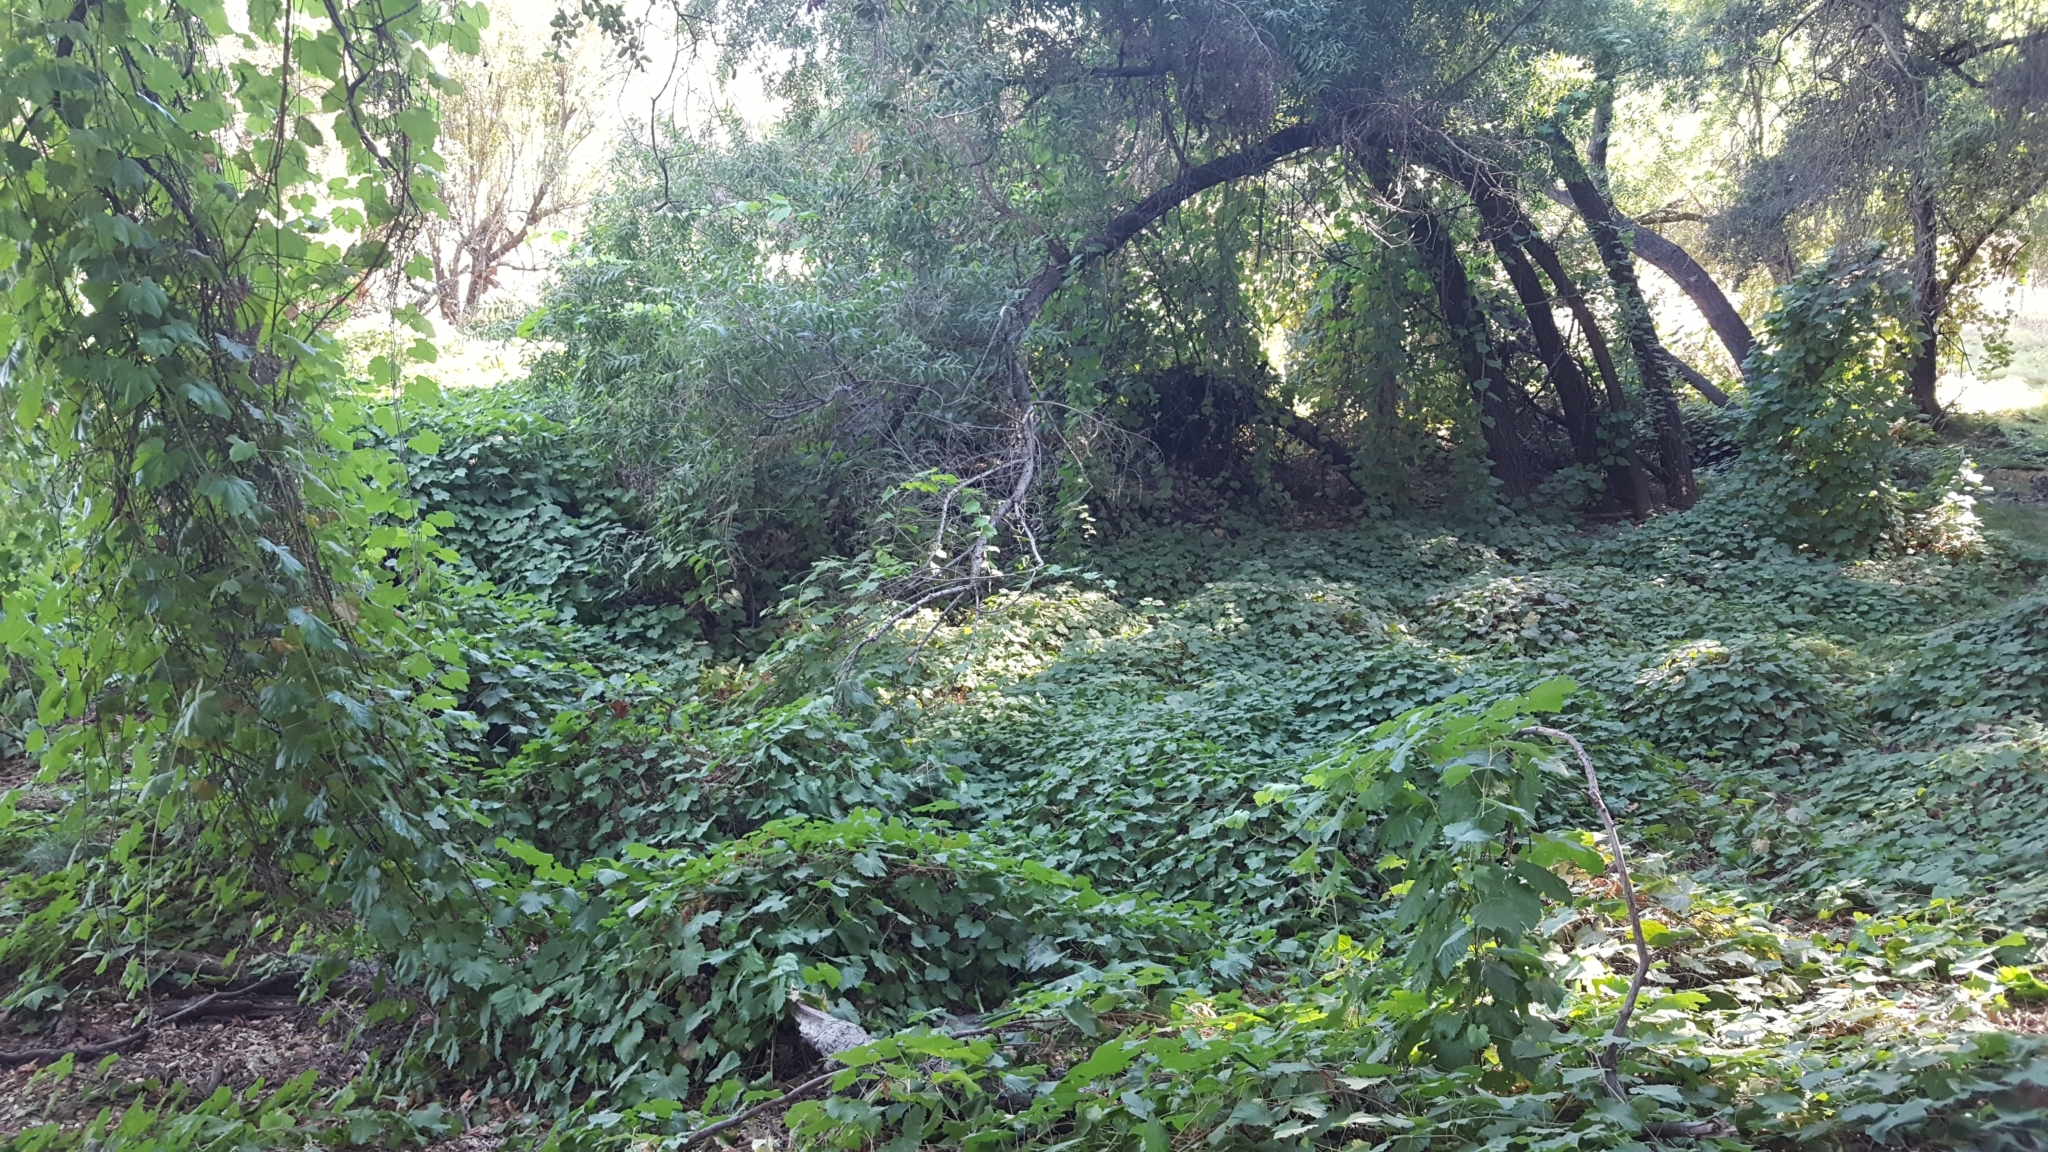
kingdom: Plantae
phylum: Tracheophyta
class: Magnoliopsida
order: Vitales
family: Vitaceae
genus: Vitis
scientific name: Vitis girdiana
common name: Desert wild grape
